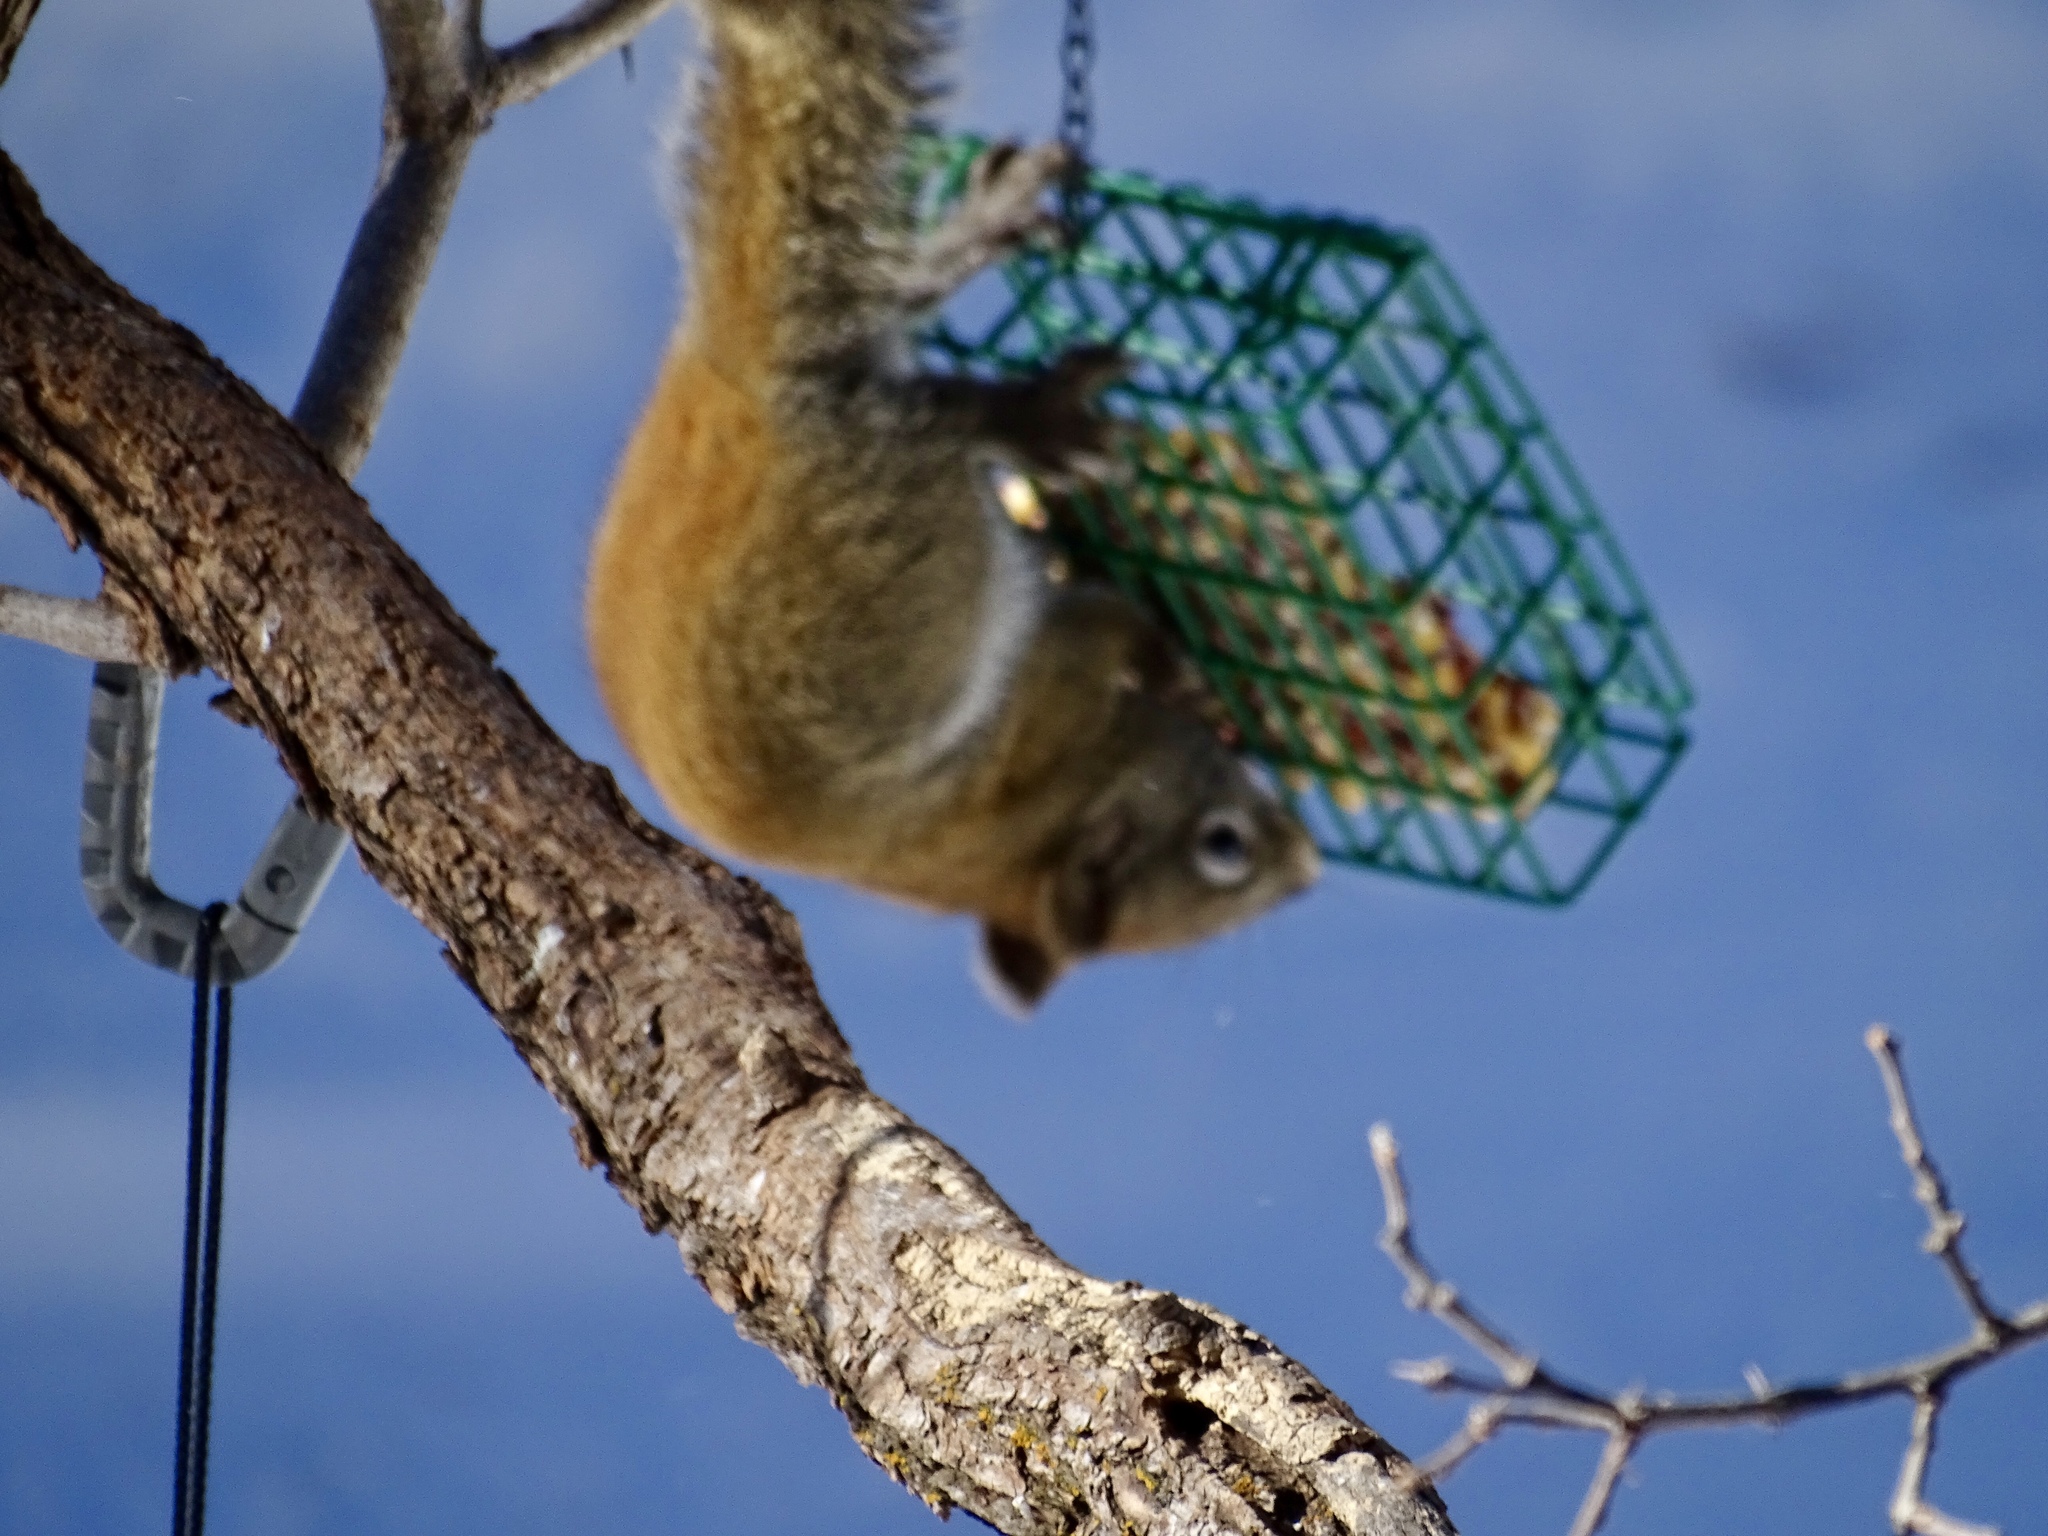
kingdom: Animalia
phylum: Chordata
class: Mammalia
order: Rodentia
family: Sciuridae
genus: Tamiasciurus
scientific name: Tamiasciurus hudsonicus
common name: Red squirrel
